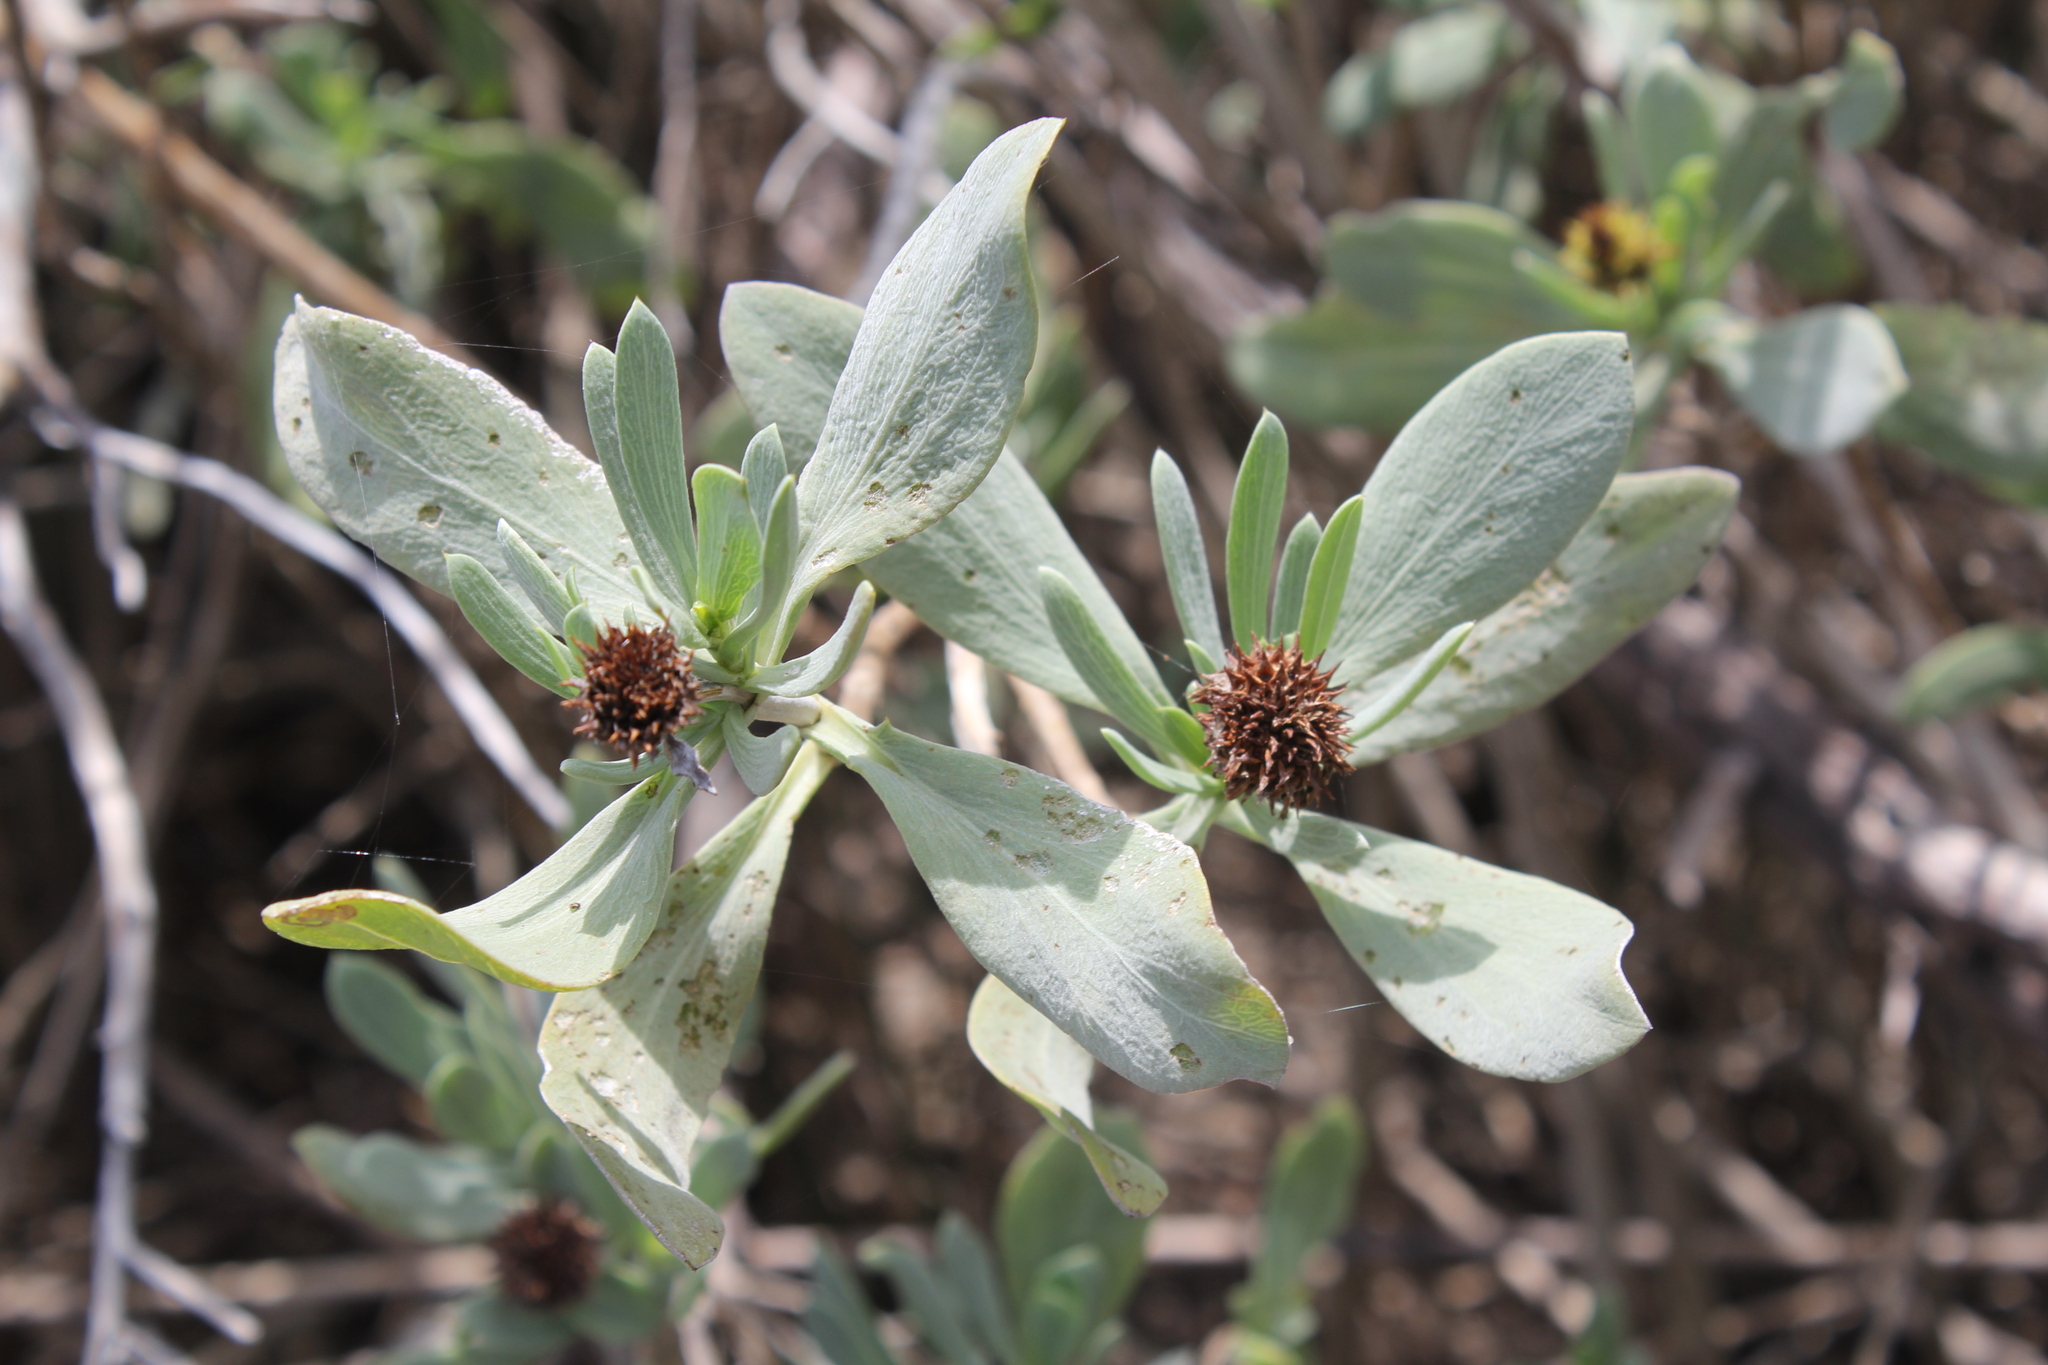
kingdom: Plantae
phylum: Tracheophyta
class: Magnoliopsida
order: Asterales
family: Asteraceae
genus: Borrichia
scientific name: Borrichia frutescens
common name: Sea oxeye
